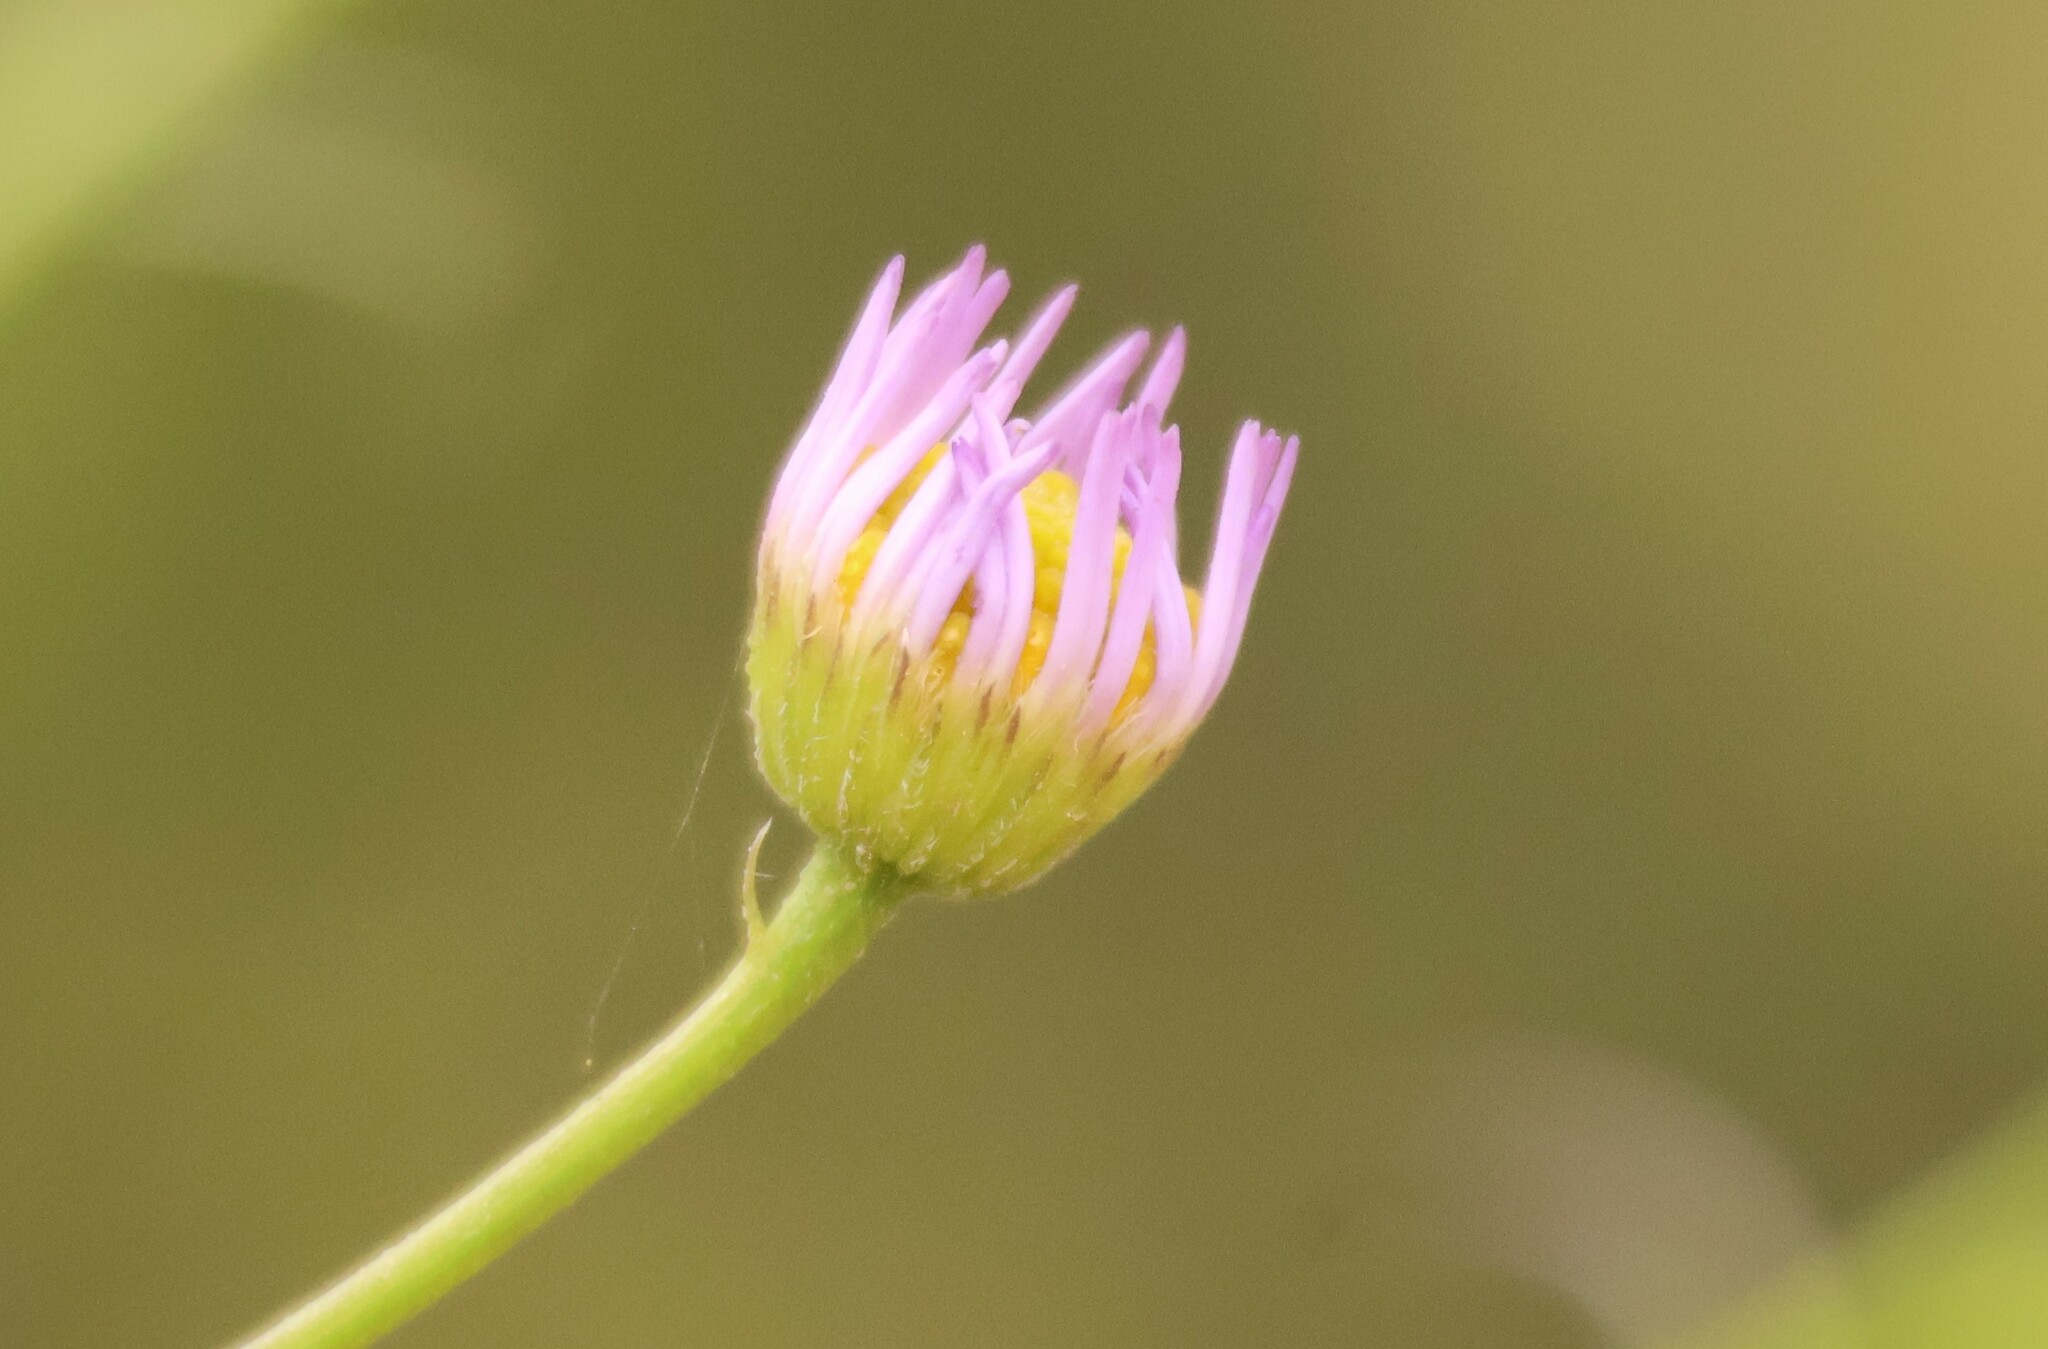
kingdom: Plantae
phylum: Tracheophyta
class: Magnoliopsida
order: Asterales
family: Asteraceae
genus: Erigeron
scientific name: Erigeron foliosus
